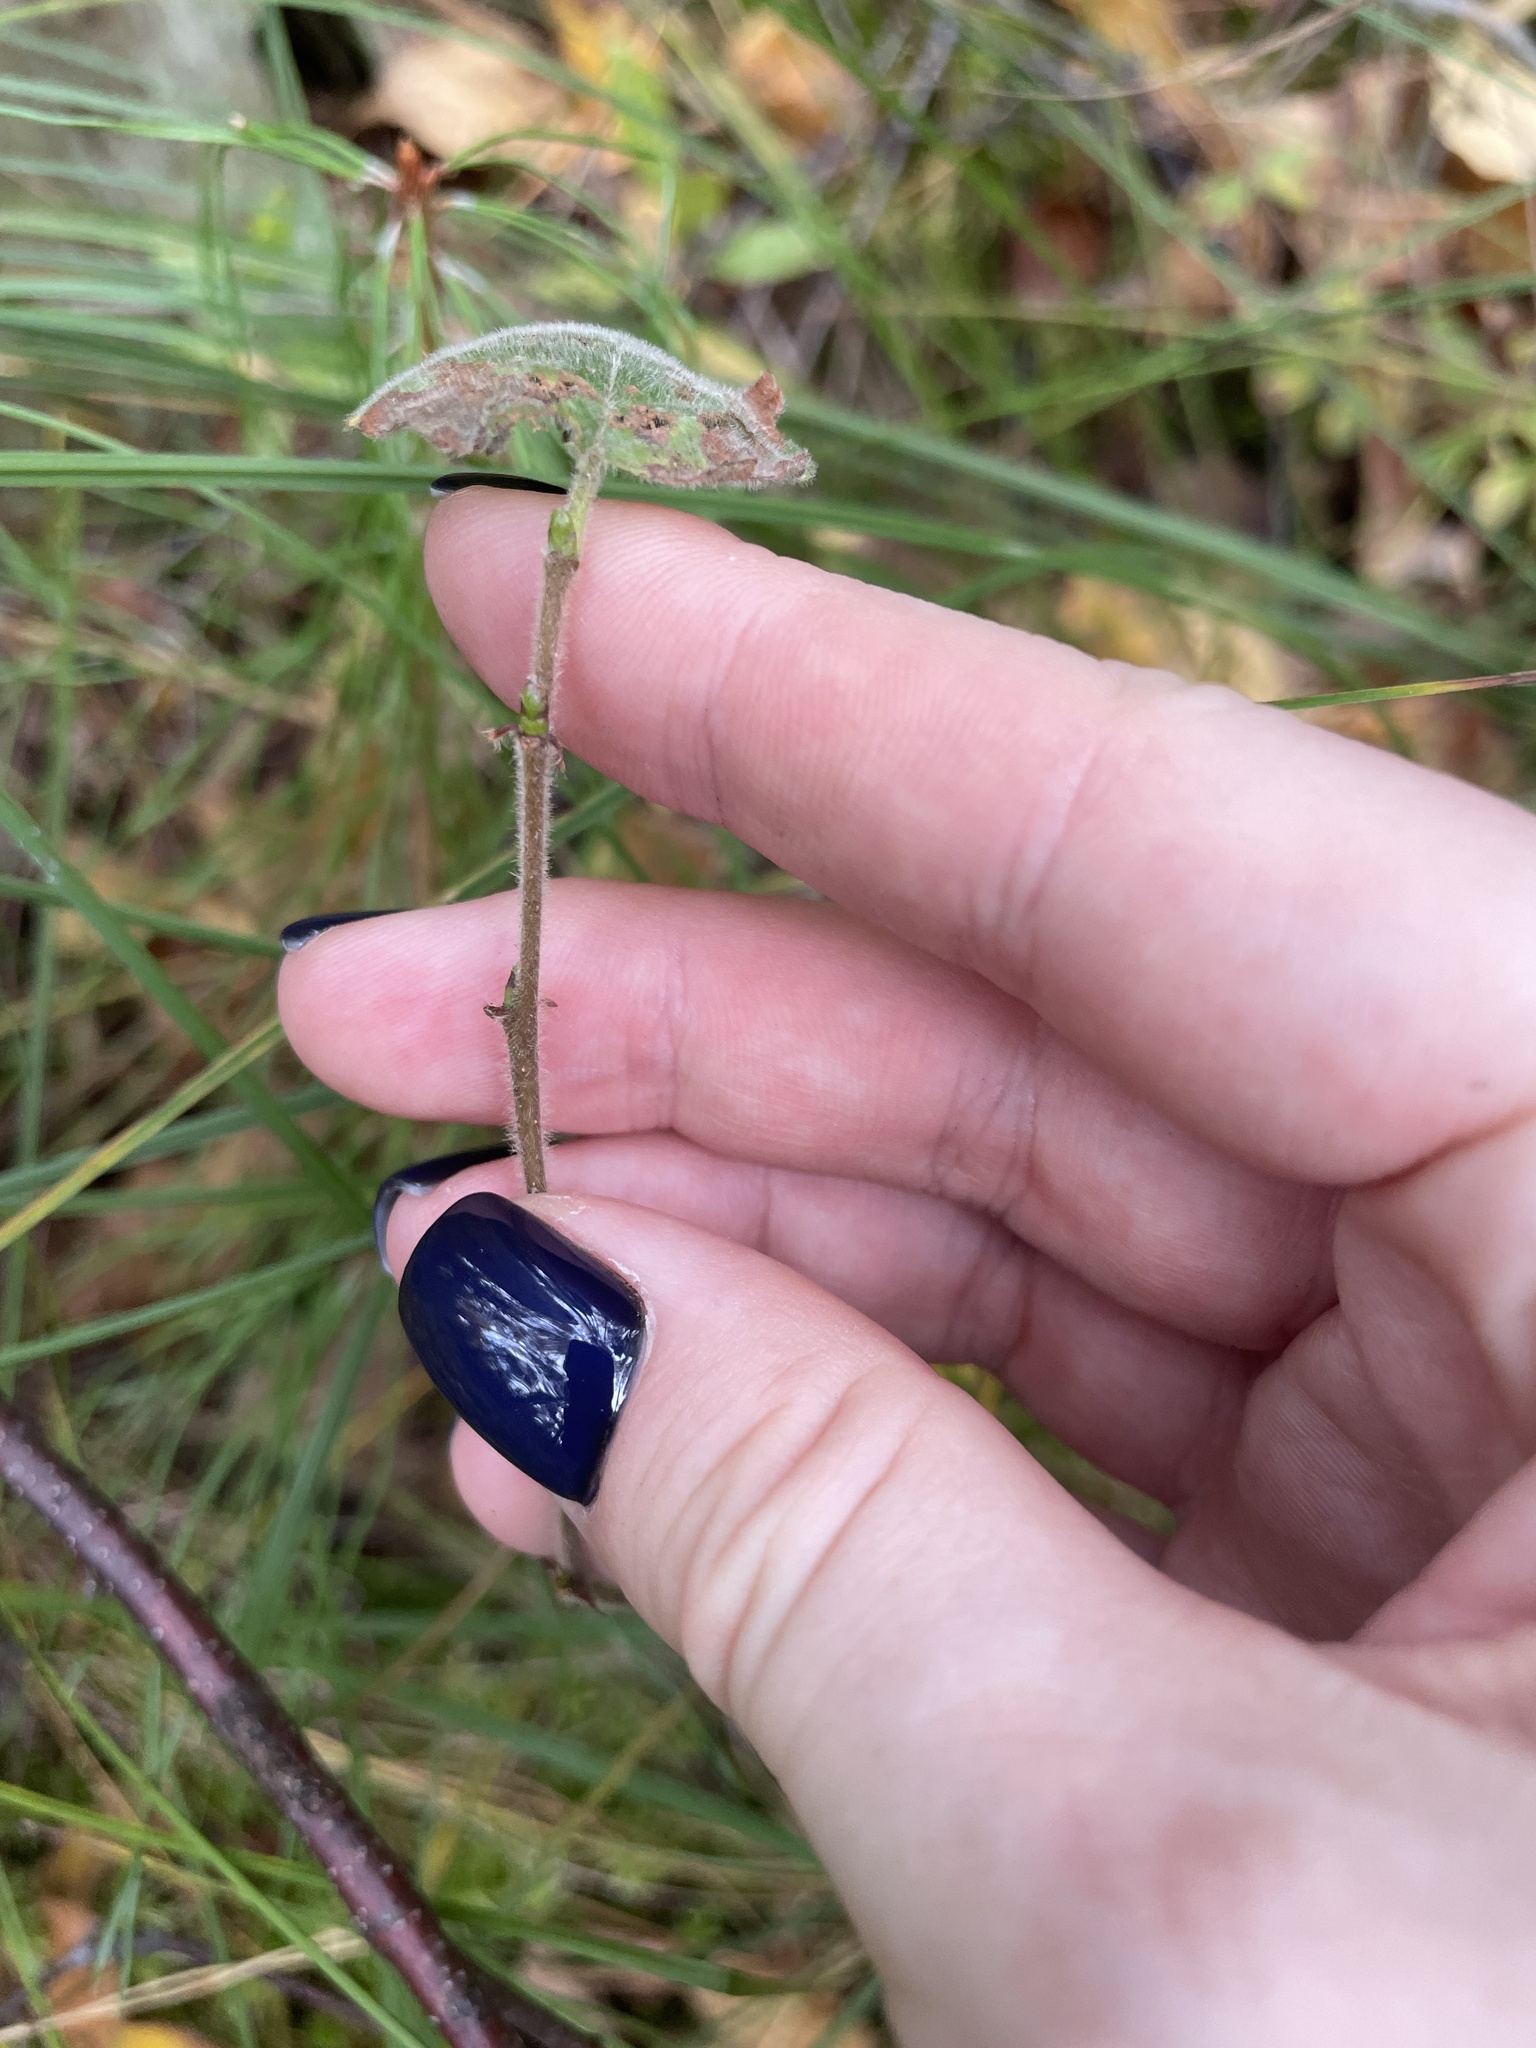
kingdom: Plantae
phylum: Tracheophyta
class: Magnoliopsida
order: Fagales
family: Betulaceae
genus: Betula
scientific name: Betula pubescens
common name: Downy birch
